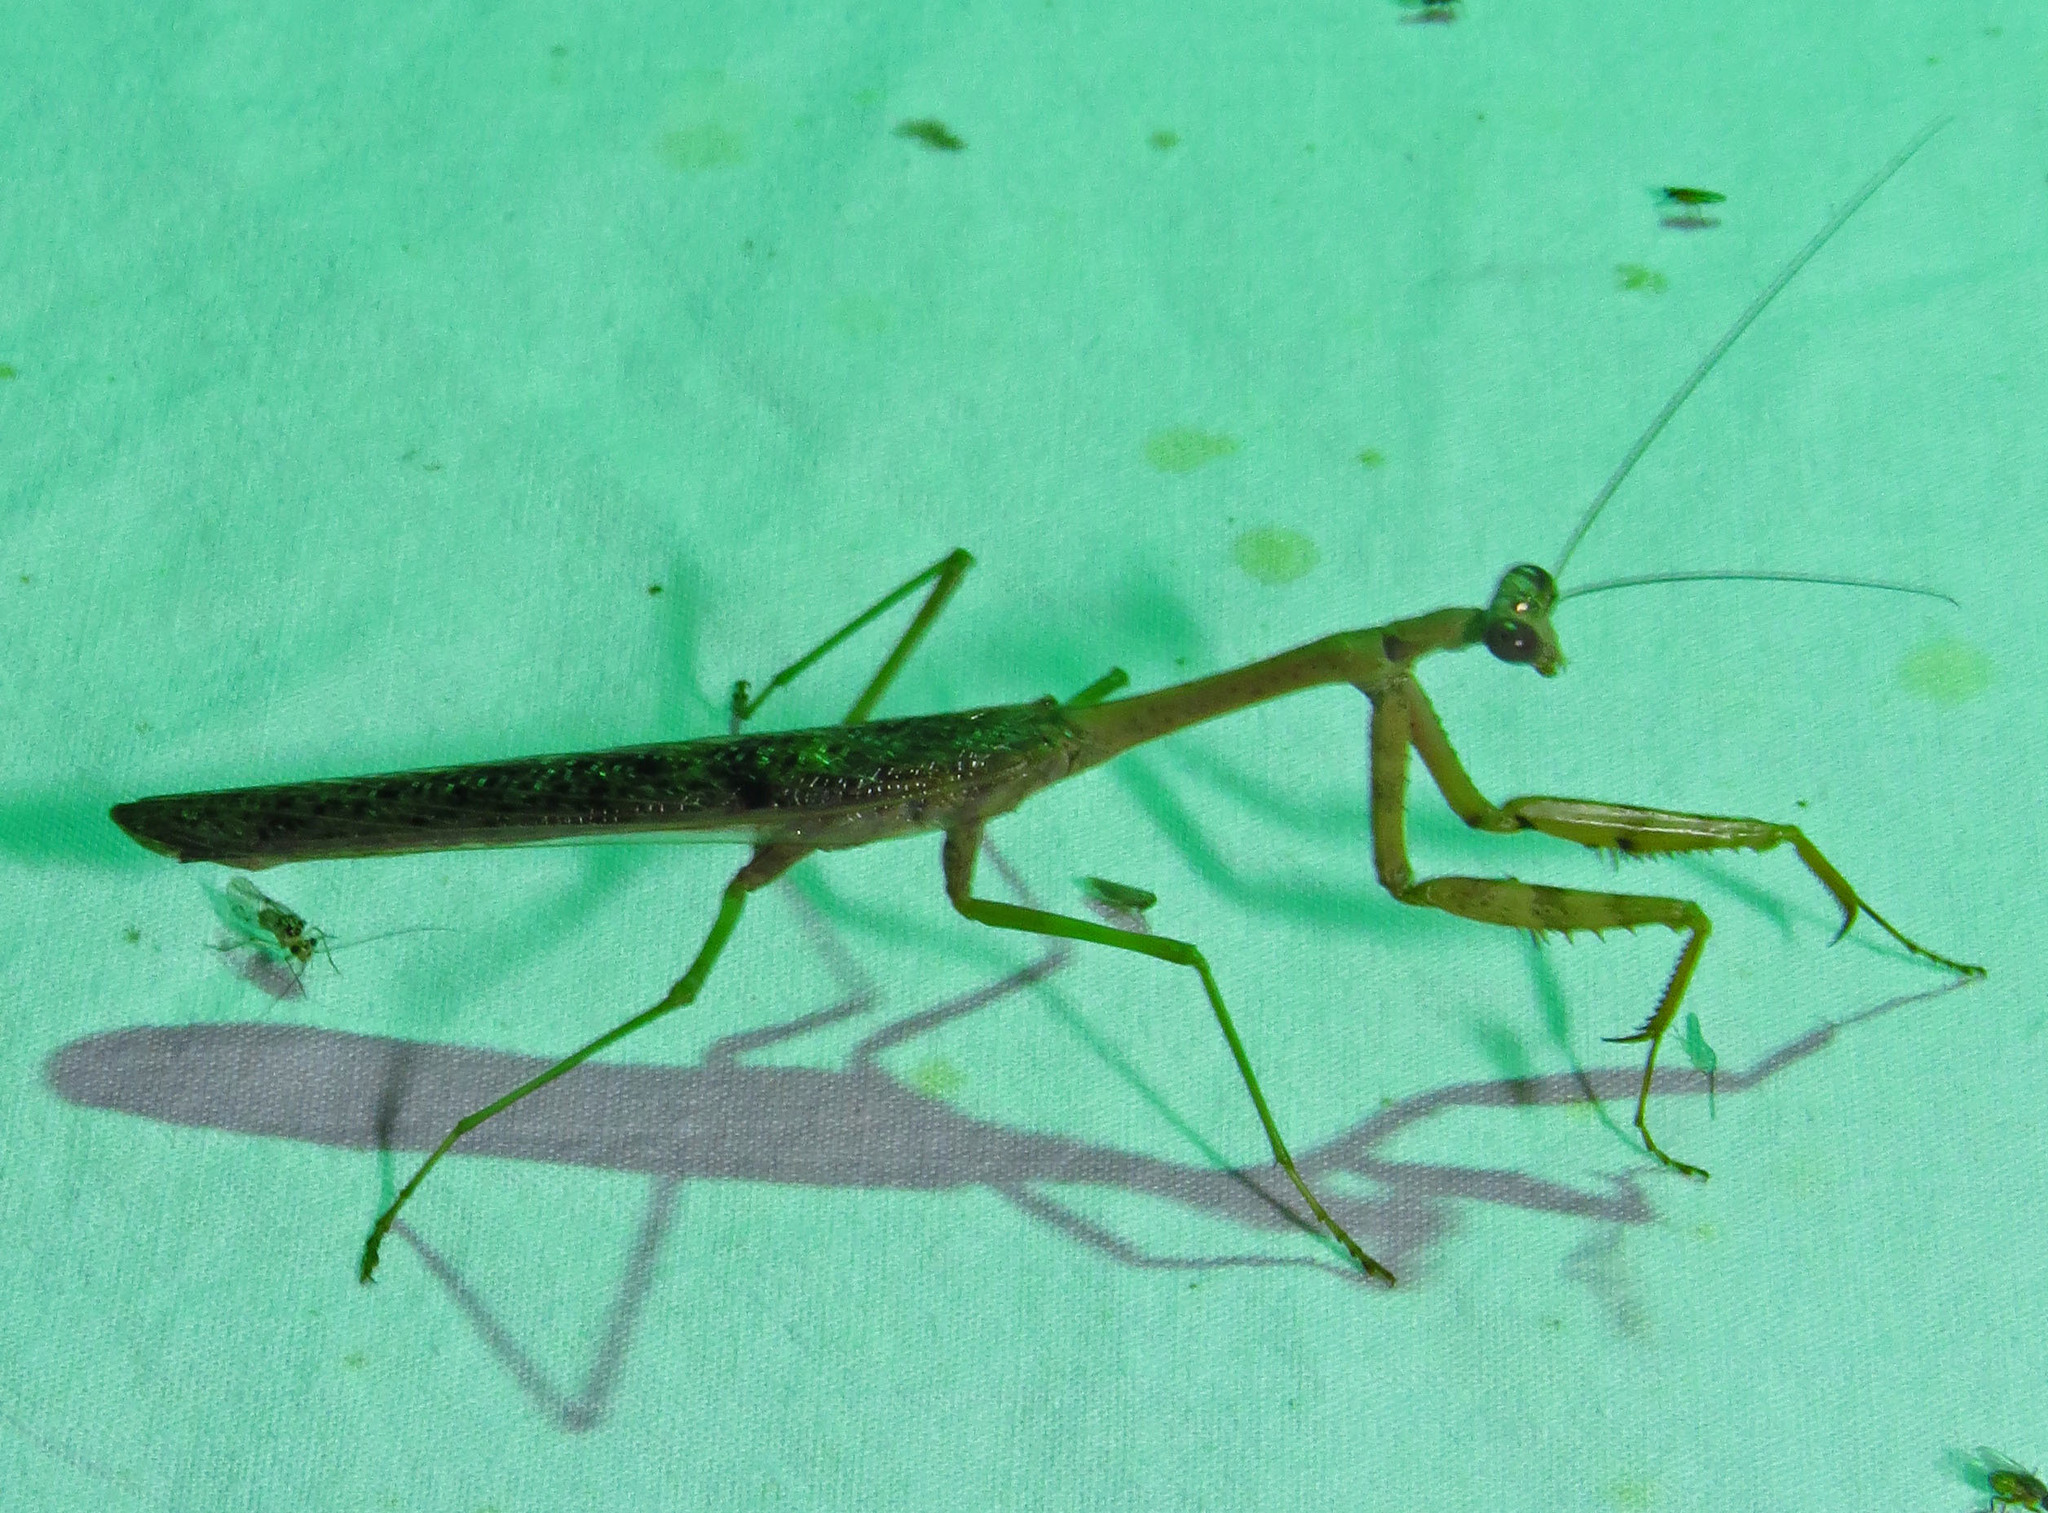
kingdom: Animalia
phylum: Arthropoda
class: Insecta
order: Mantodea
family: Mantidae
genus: Stagmomantis
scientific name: Stagmomantis carolina
